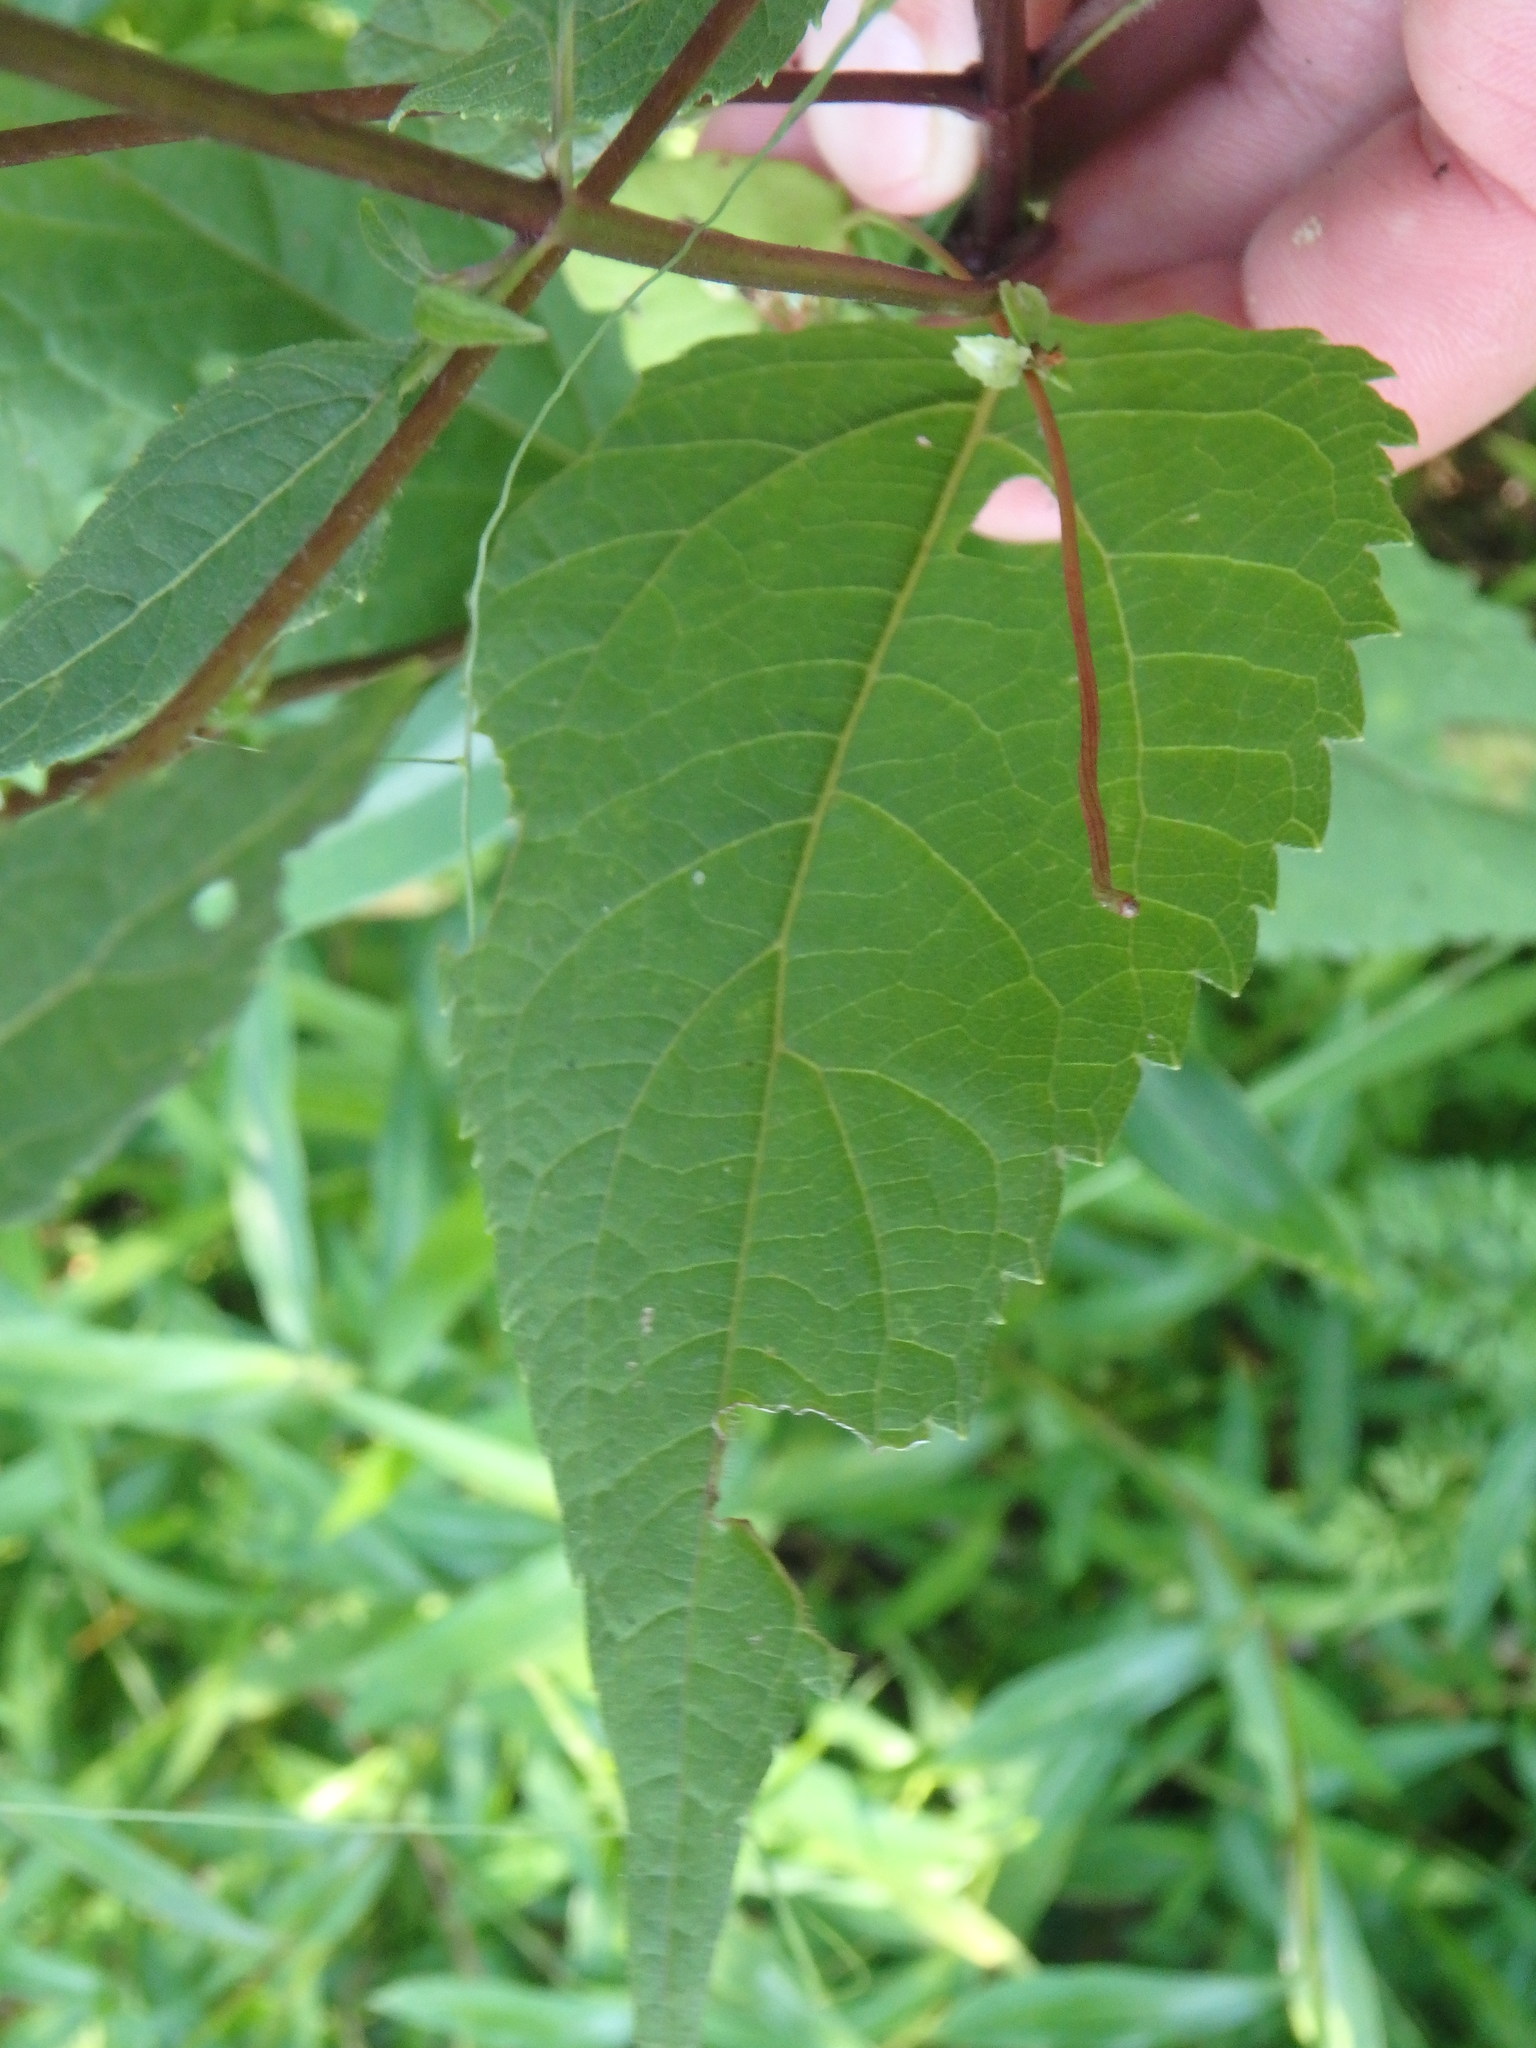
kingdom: Plantae
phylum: Tracheophyta
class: Magnoliopsida
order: Asterales
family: Asteraceae
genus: Ageratina
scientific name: Ageratina altissima
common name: White snakeroot
